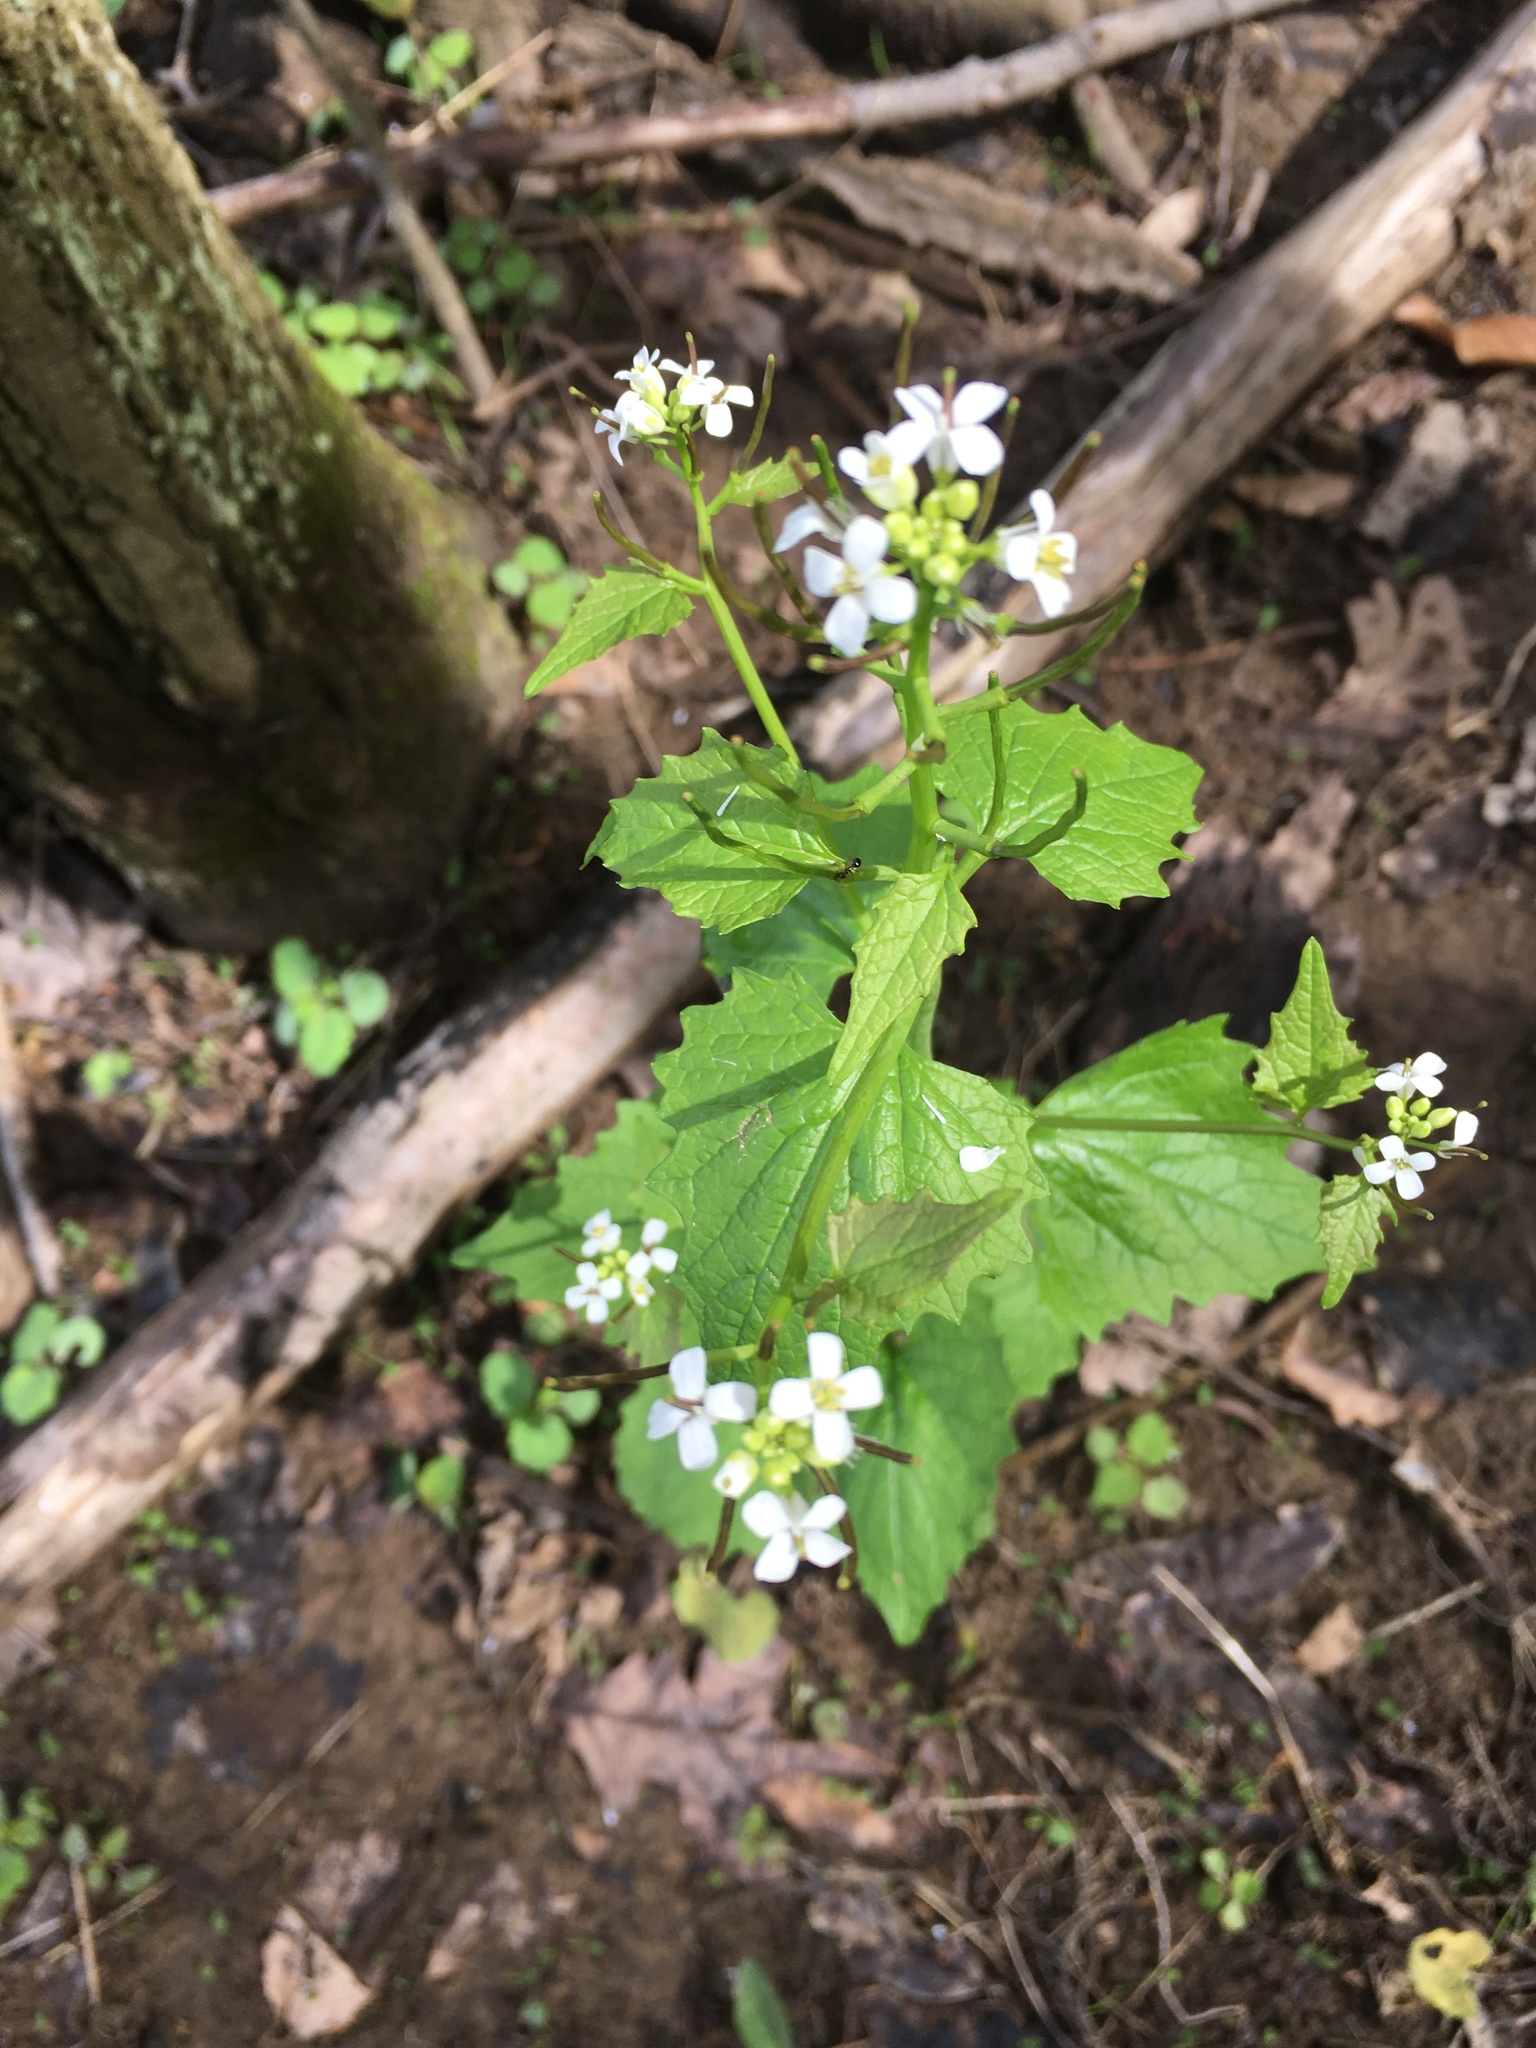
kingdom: Plantae
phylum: Tracheophyta
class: Magnoliopsida
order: Brassicales
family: Brassicaceae
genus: Alliaria
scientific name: Alliaria petiolata
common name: Garlic mustard
